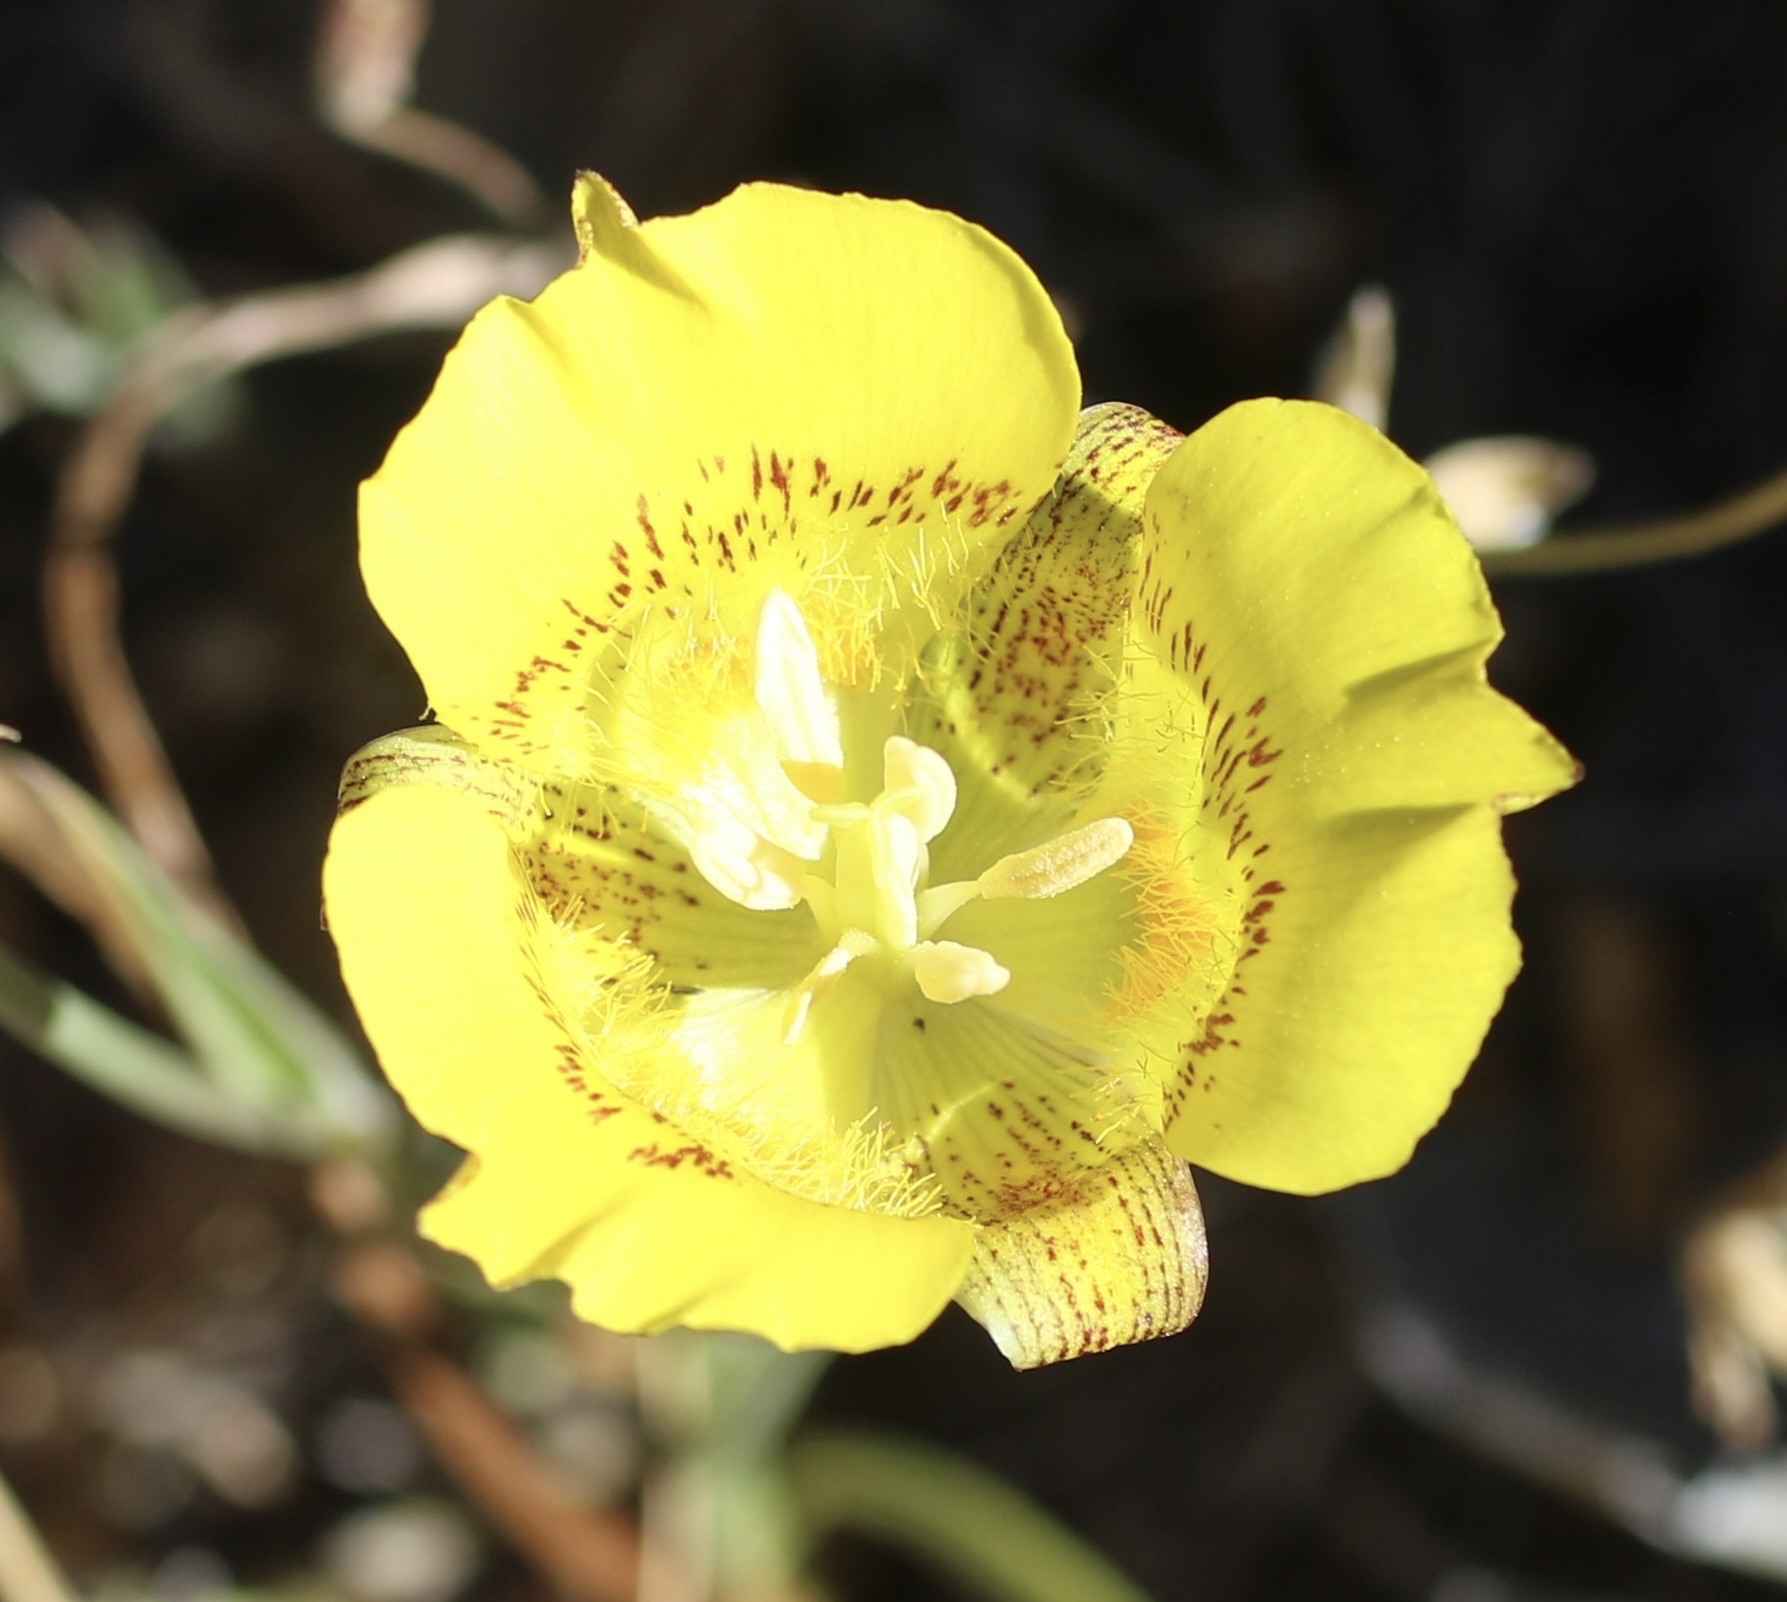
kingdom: Plantae
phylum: Tracheophyta
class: Liliopsida
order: Liliales
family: Liliaceae
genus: Calochortus
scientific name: Calochortus luteus
